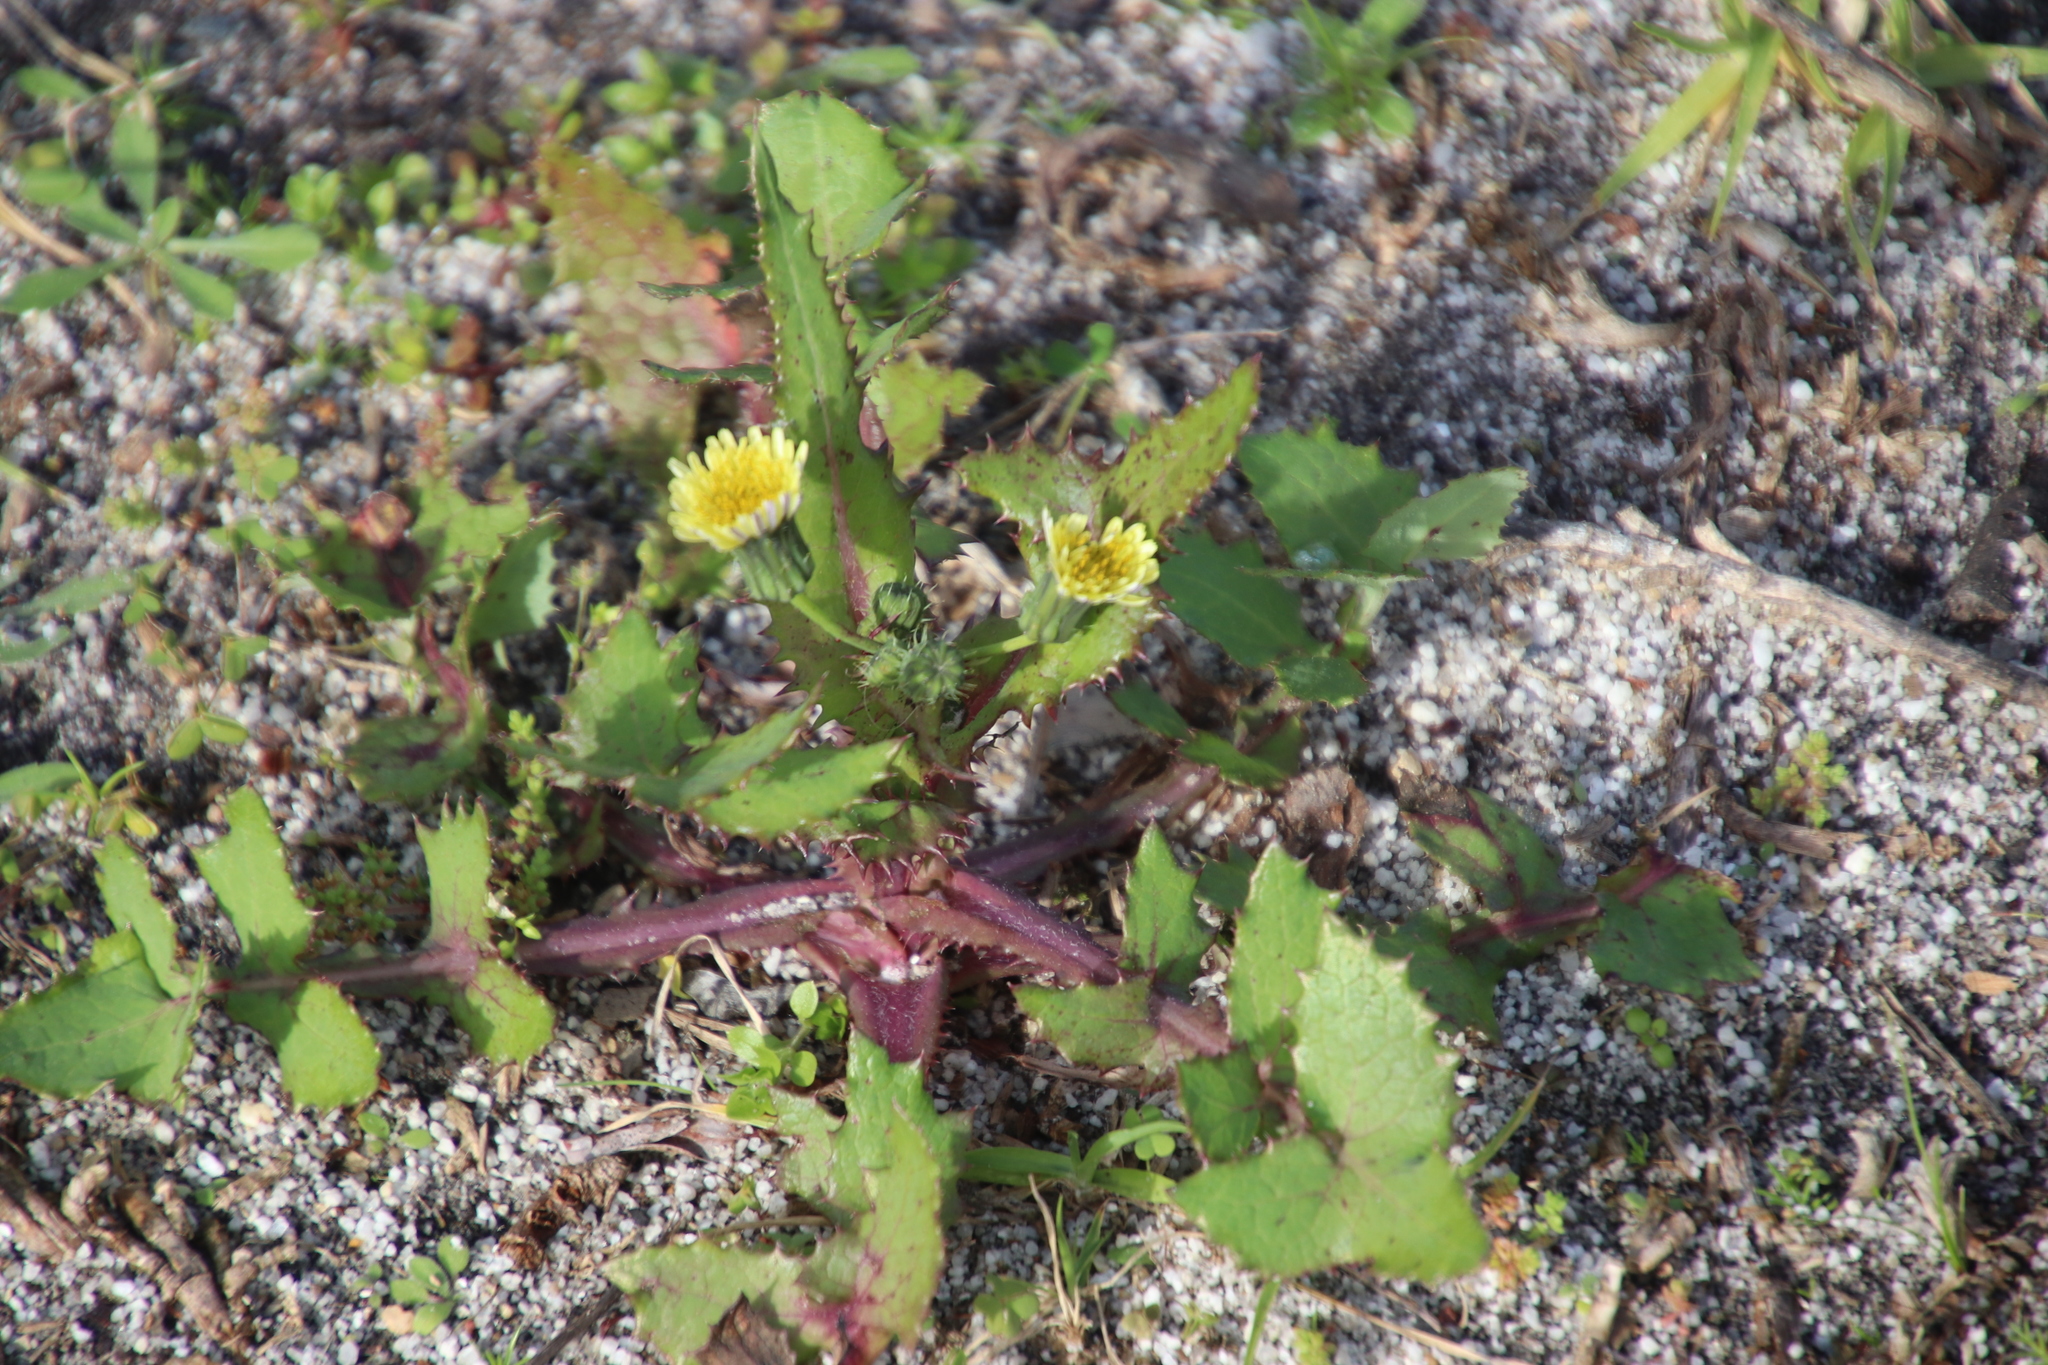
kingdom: Plantae
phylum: Tracheophyta
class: Magnoliopsida
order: Asterales
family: Asteraceae
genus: Sonchus
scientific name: Sonchus oleraceus
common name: Common sowthistle
